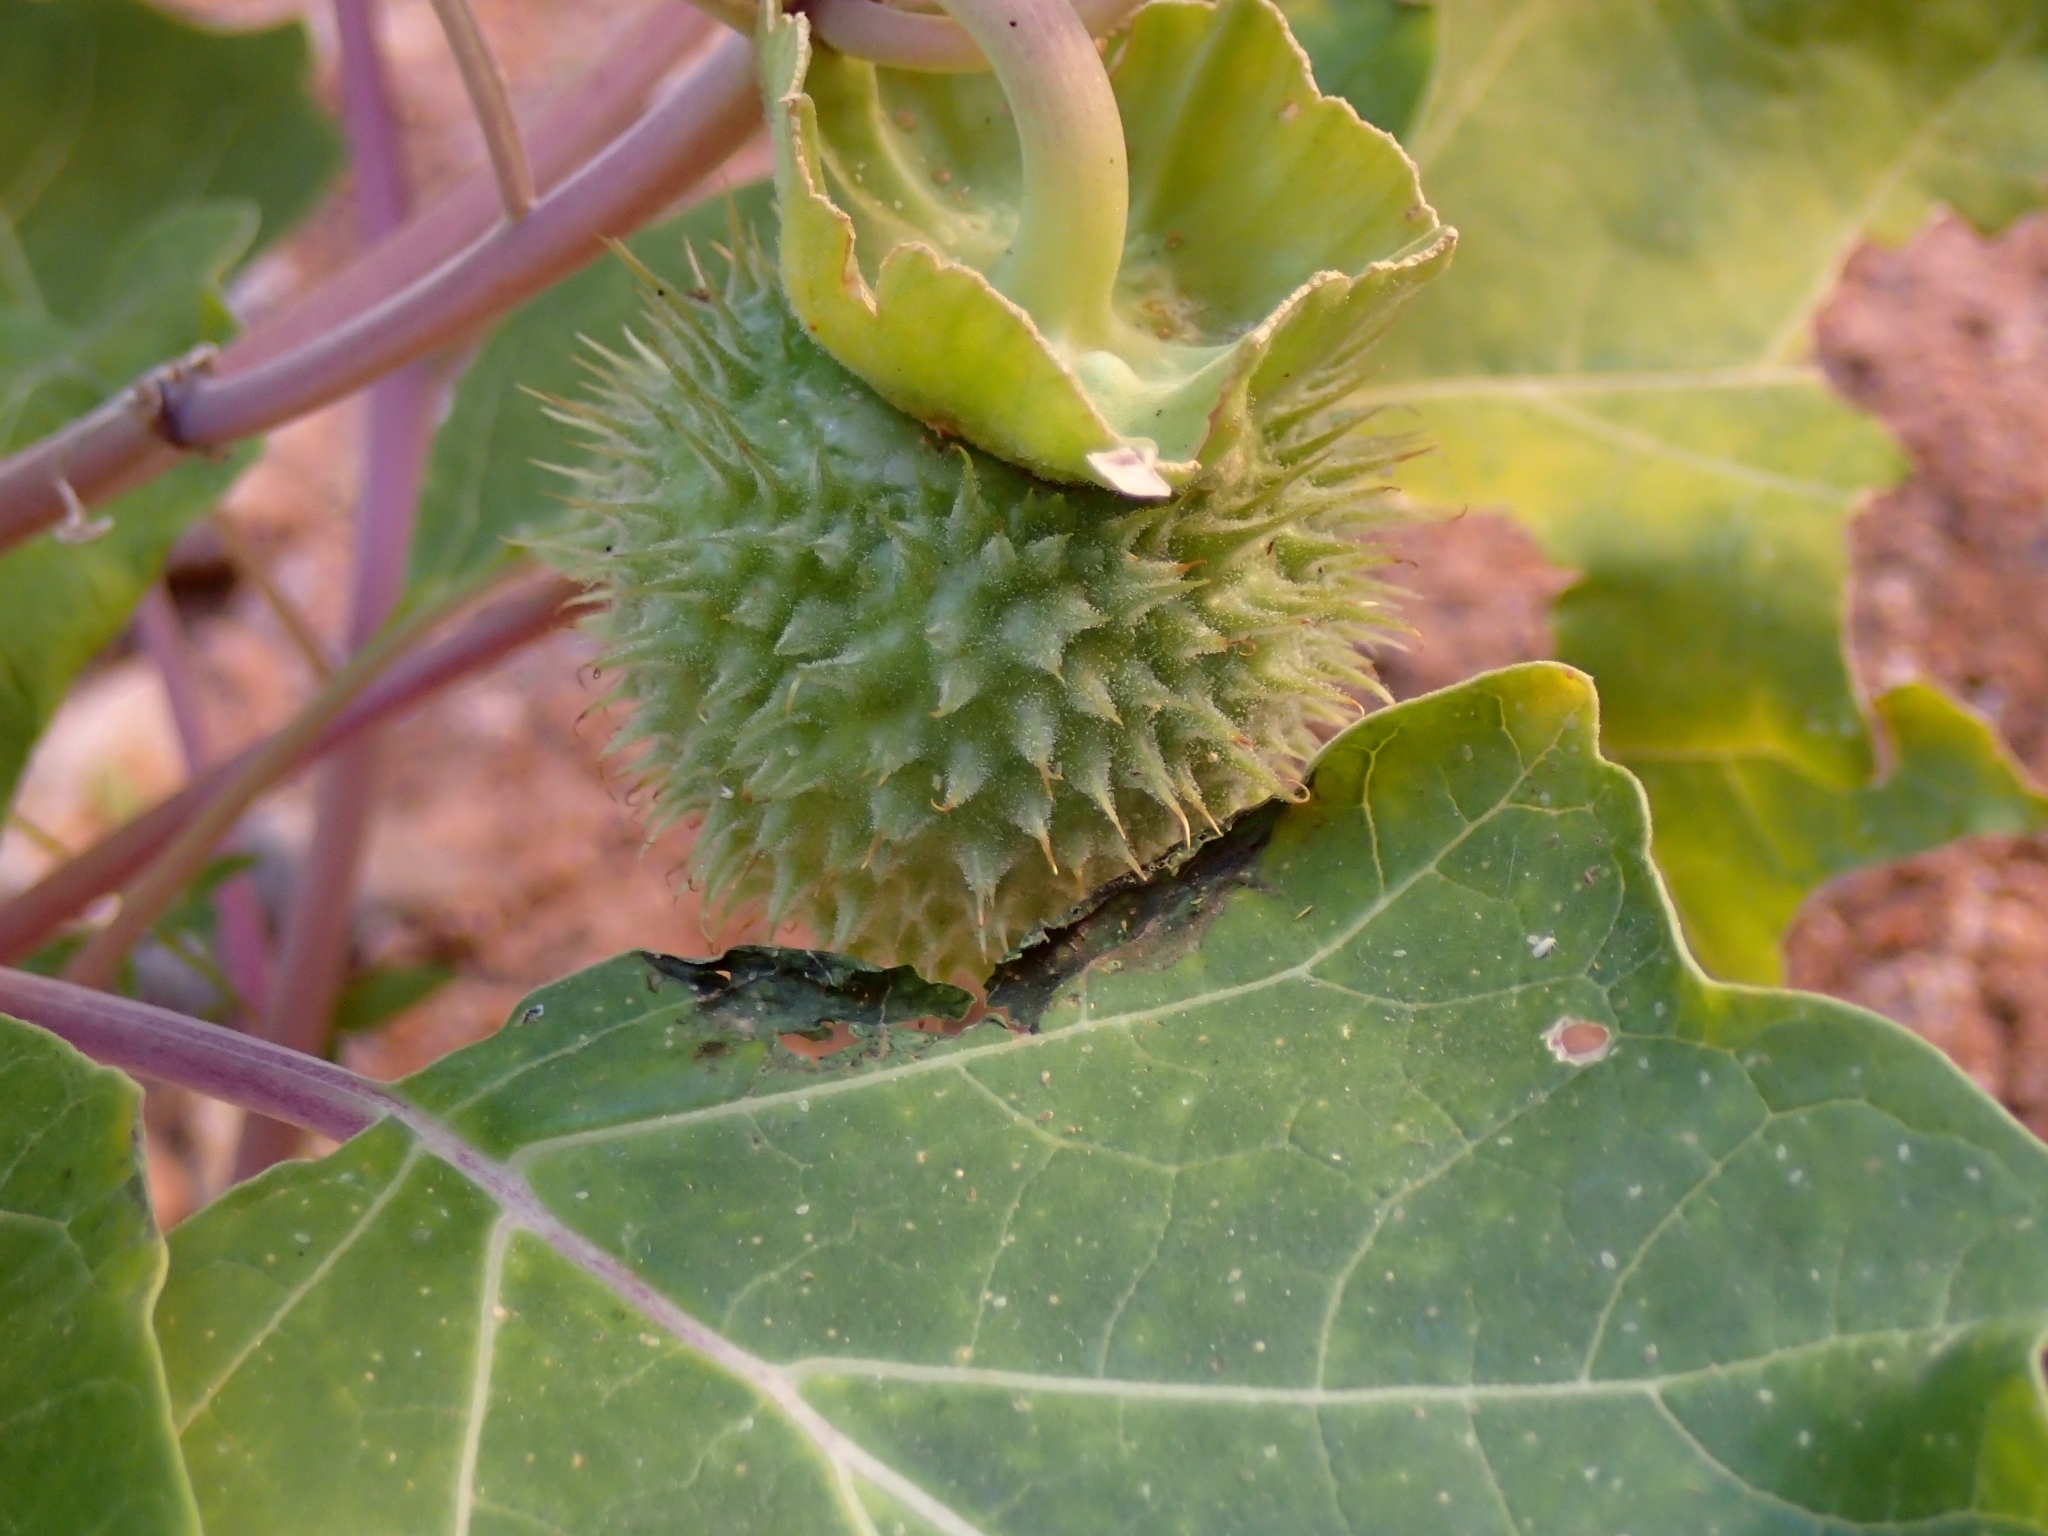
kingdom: Plantae
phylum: Tracheophyta
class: Magnoliopsida
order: Solanales
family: Solanaceae
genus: Datura
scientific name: Datura wrightii
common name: Sacred thorn-apple
